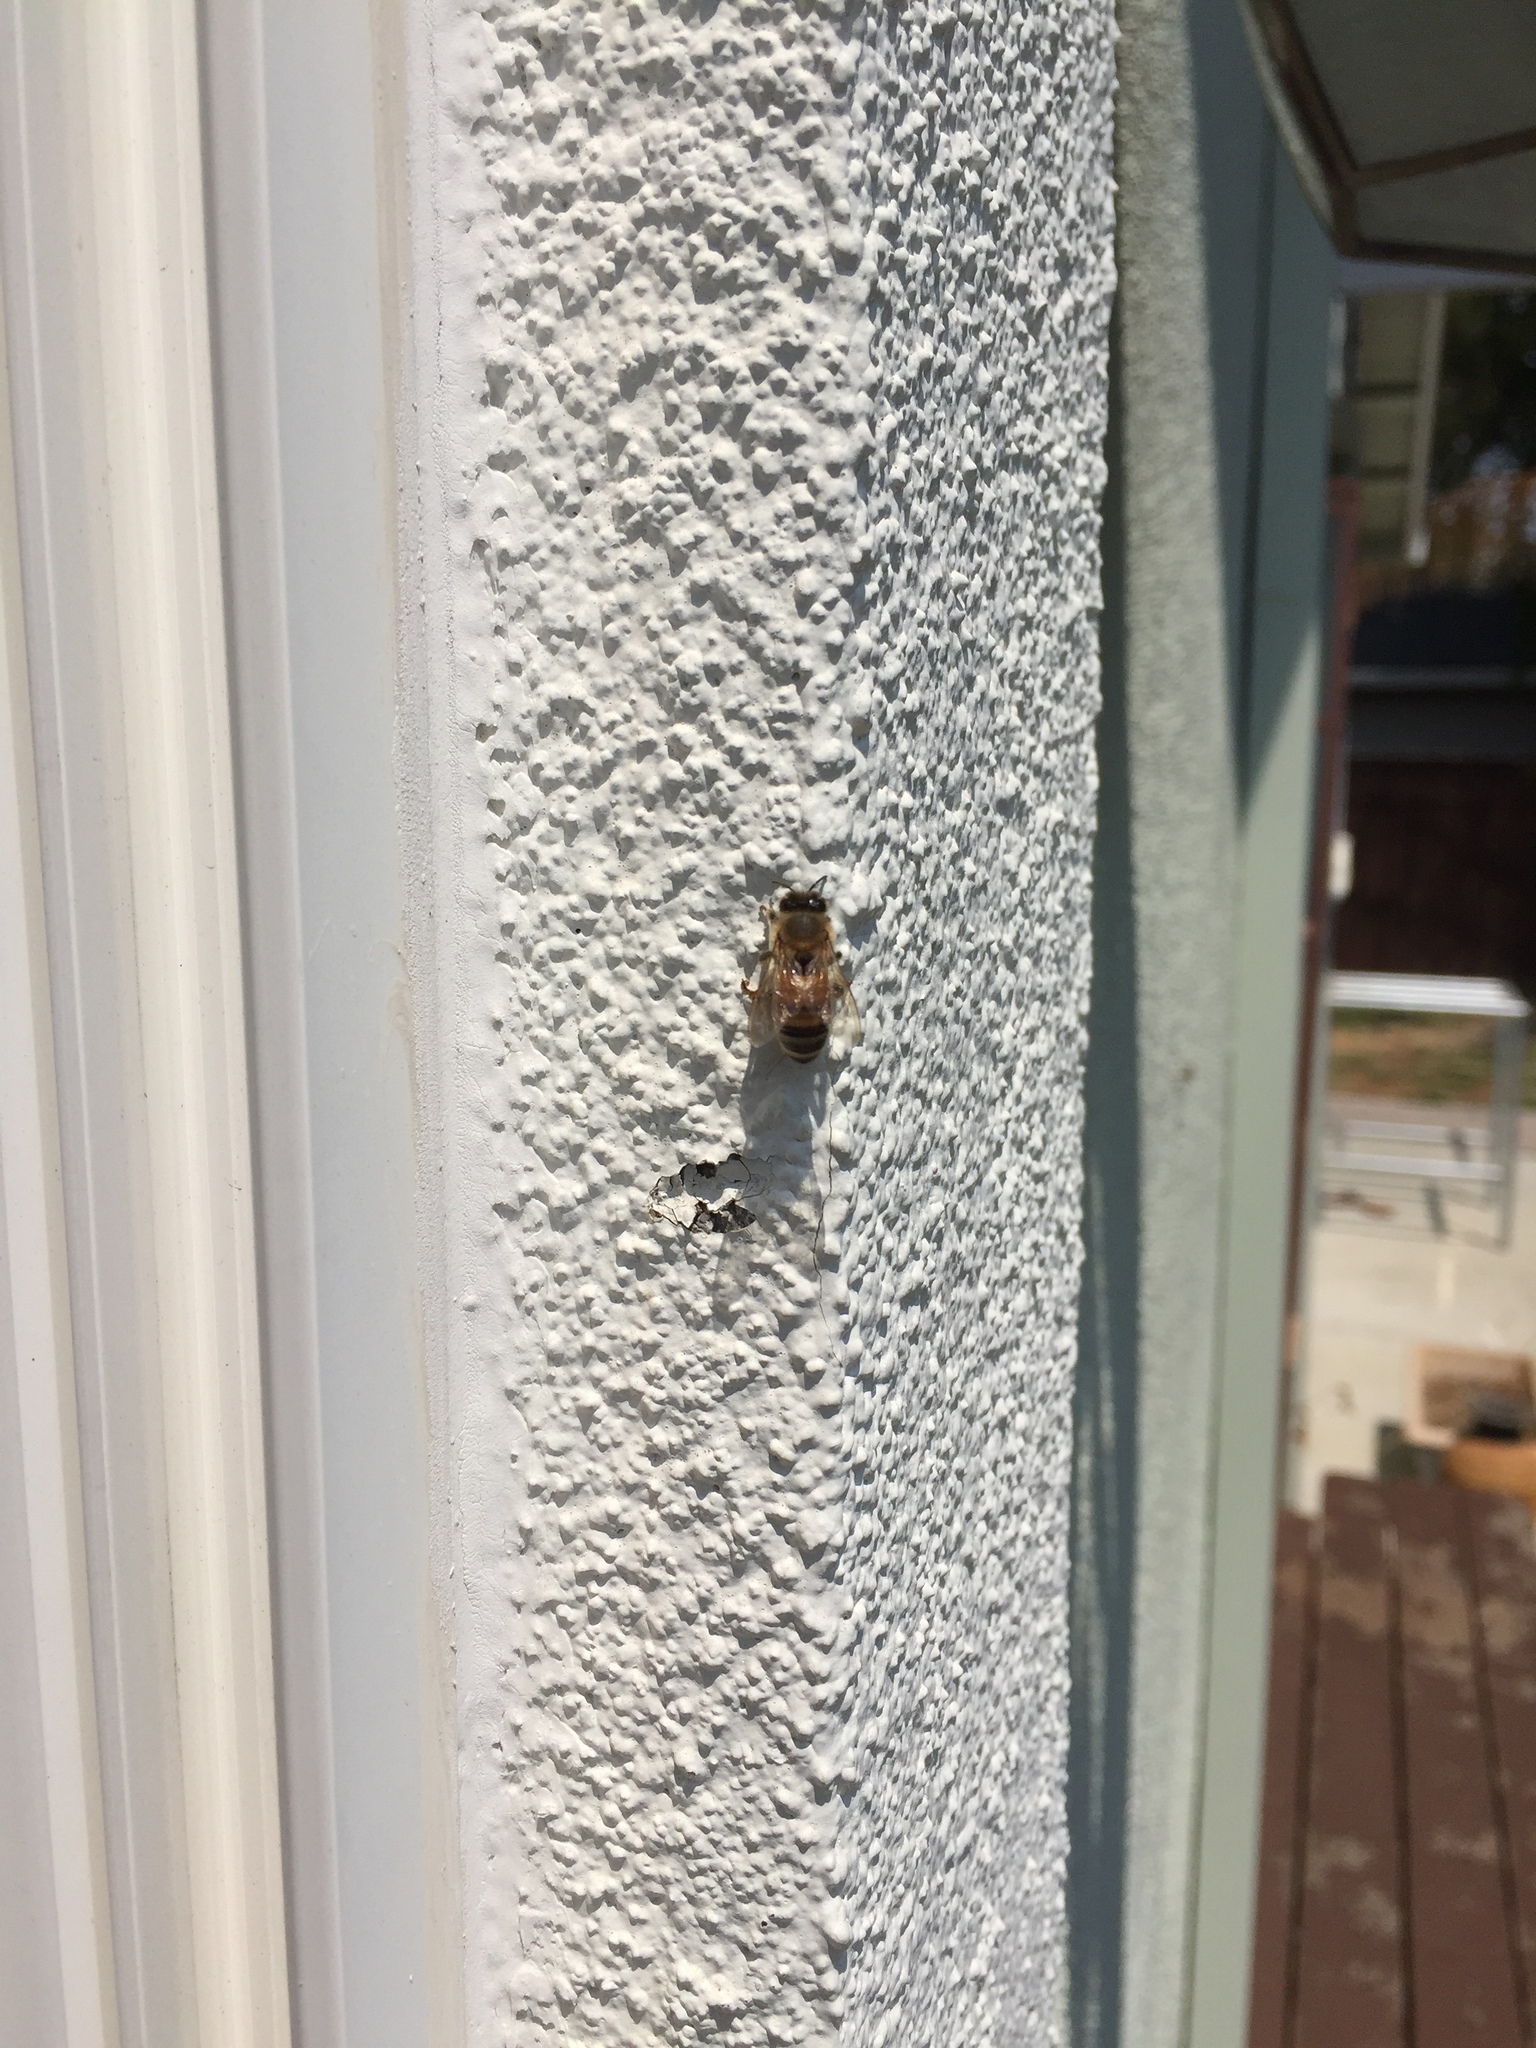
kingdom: Animalia
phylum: Arthropoda
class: Insecta
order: Hymenoptera
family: Apidae
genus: Apis
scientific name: Apis mellifera
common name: Honey bee
